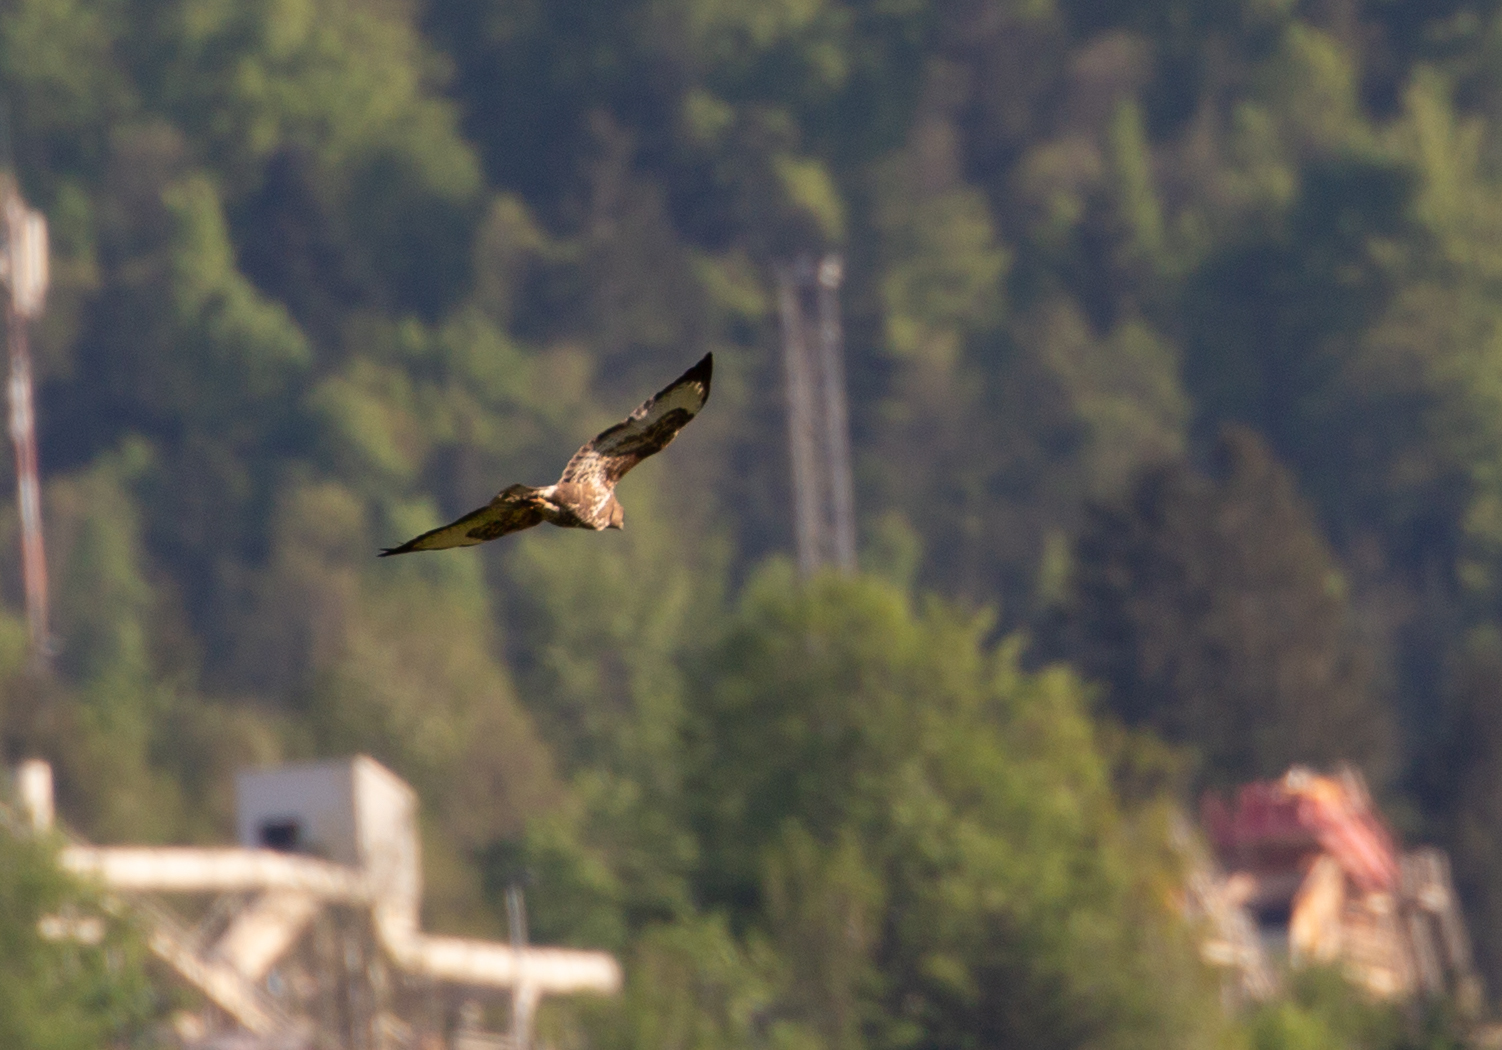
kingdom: Animalia
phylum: Chordata
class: Aves
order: Accipitriformes
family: Accipitridae
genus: Buteo
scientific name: Buteo buteo
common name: Common buzzard
